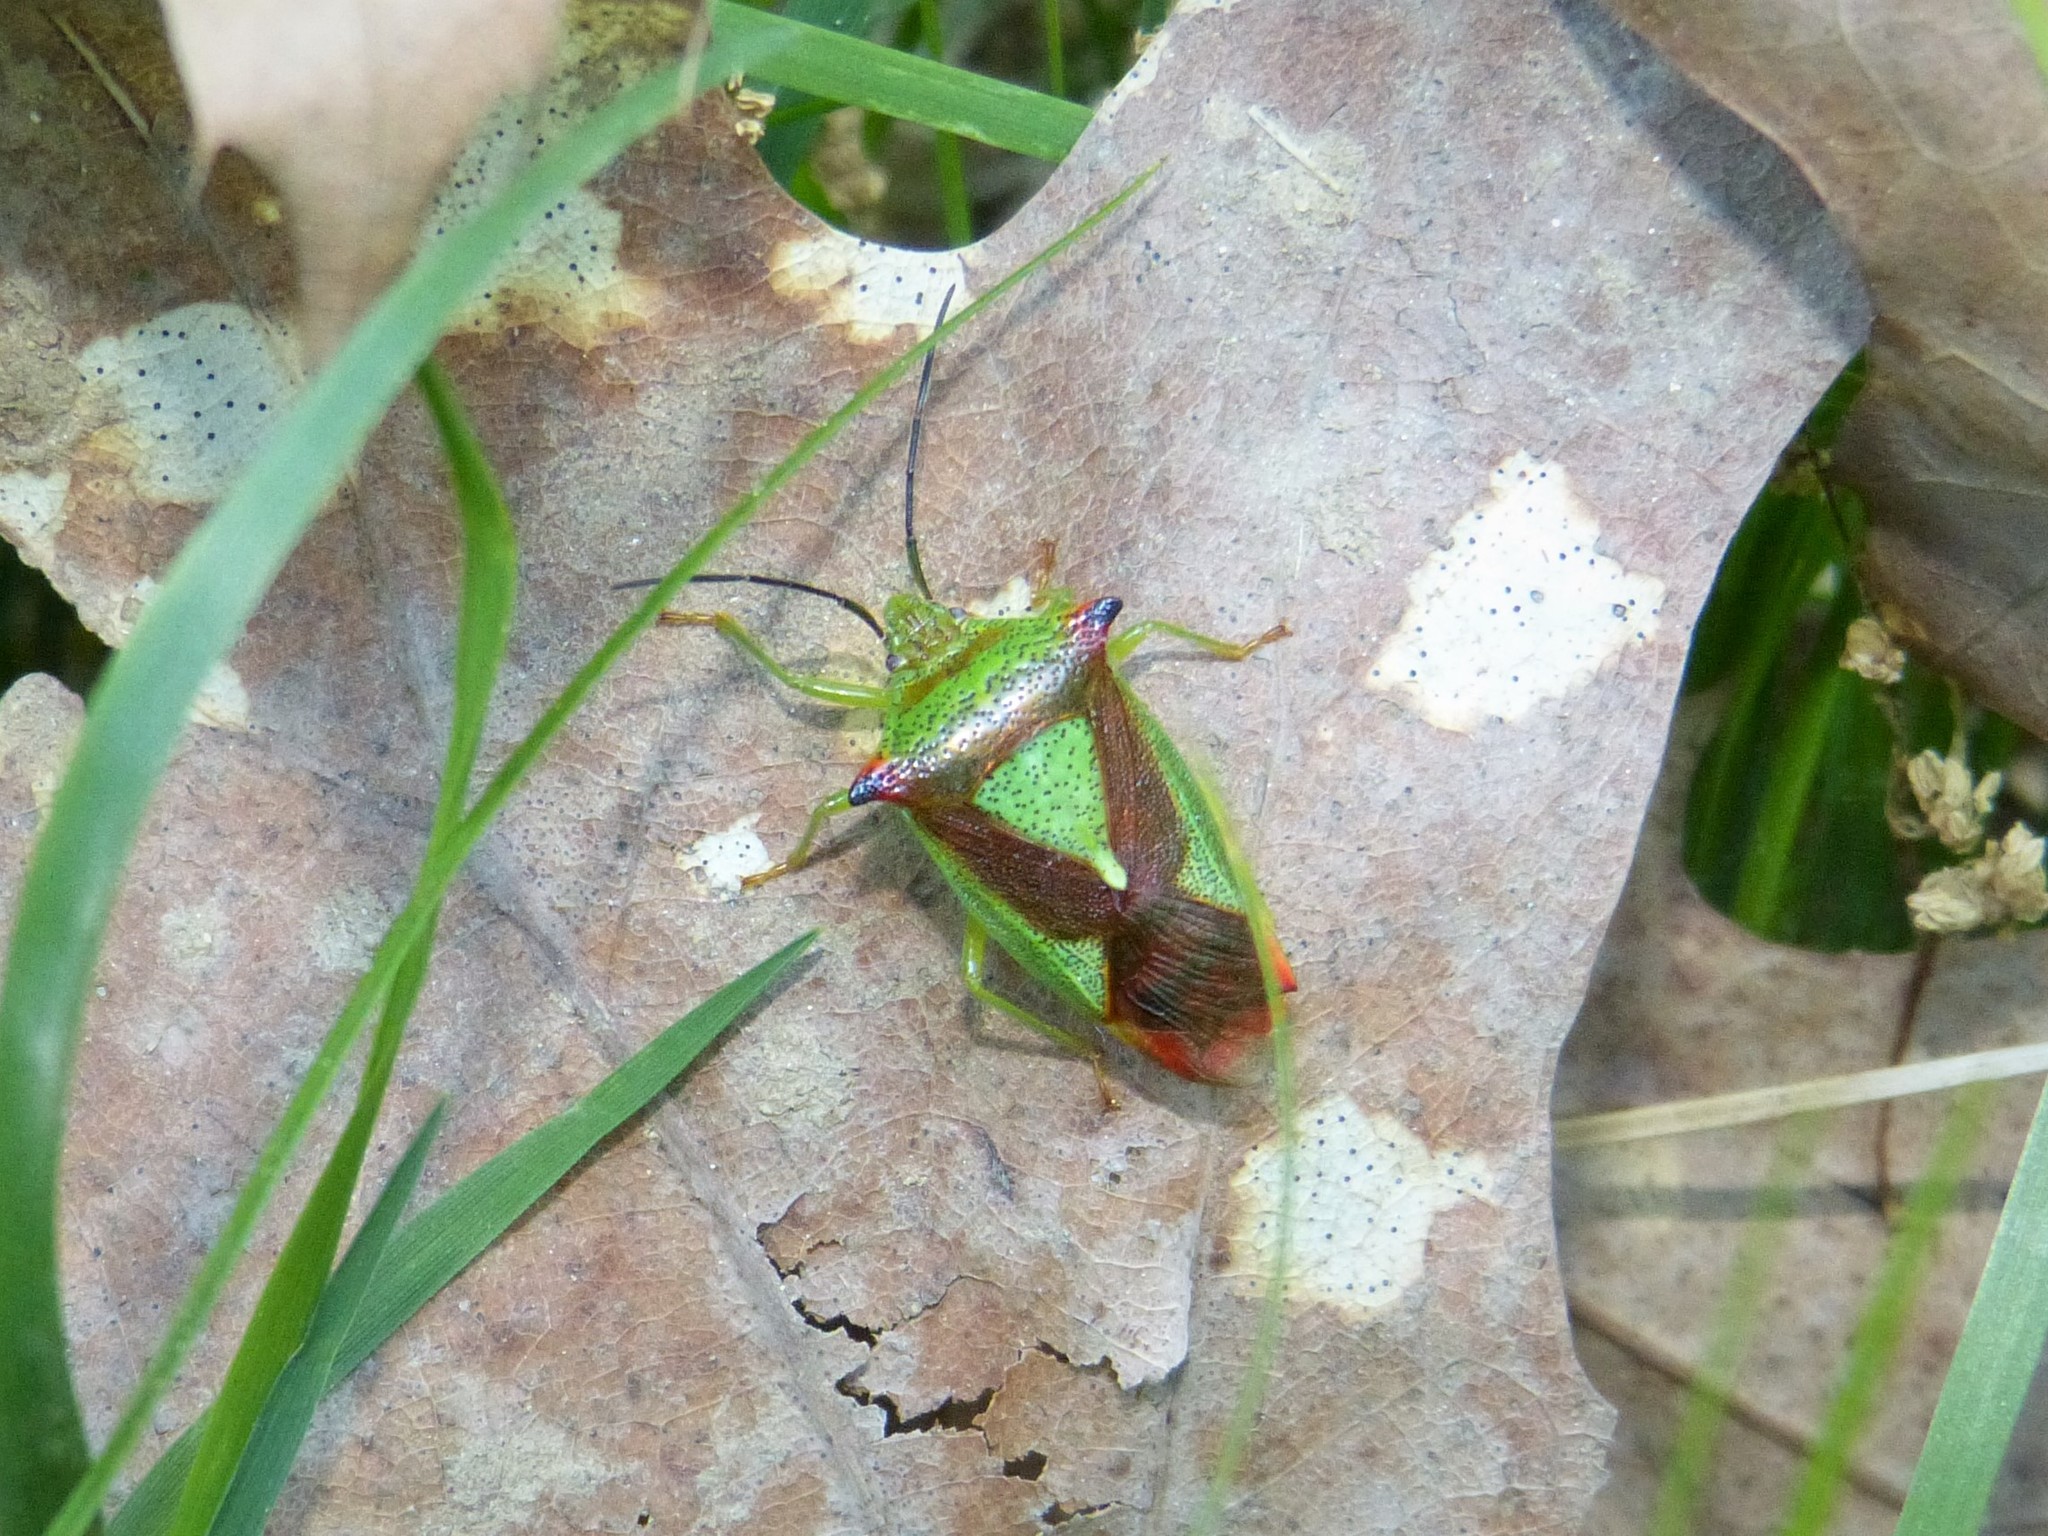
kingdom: Animalia
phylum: Arthropoda
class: Insecta
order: Hemiptera
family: Acanthosomatidae
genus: Acanthosoma
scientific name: Acanthosoma haemorrhoidale
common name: Hawthorn shieldbug
